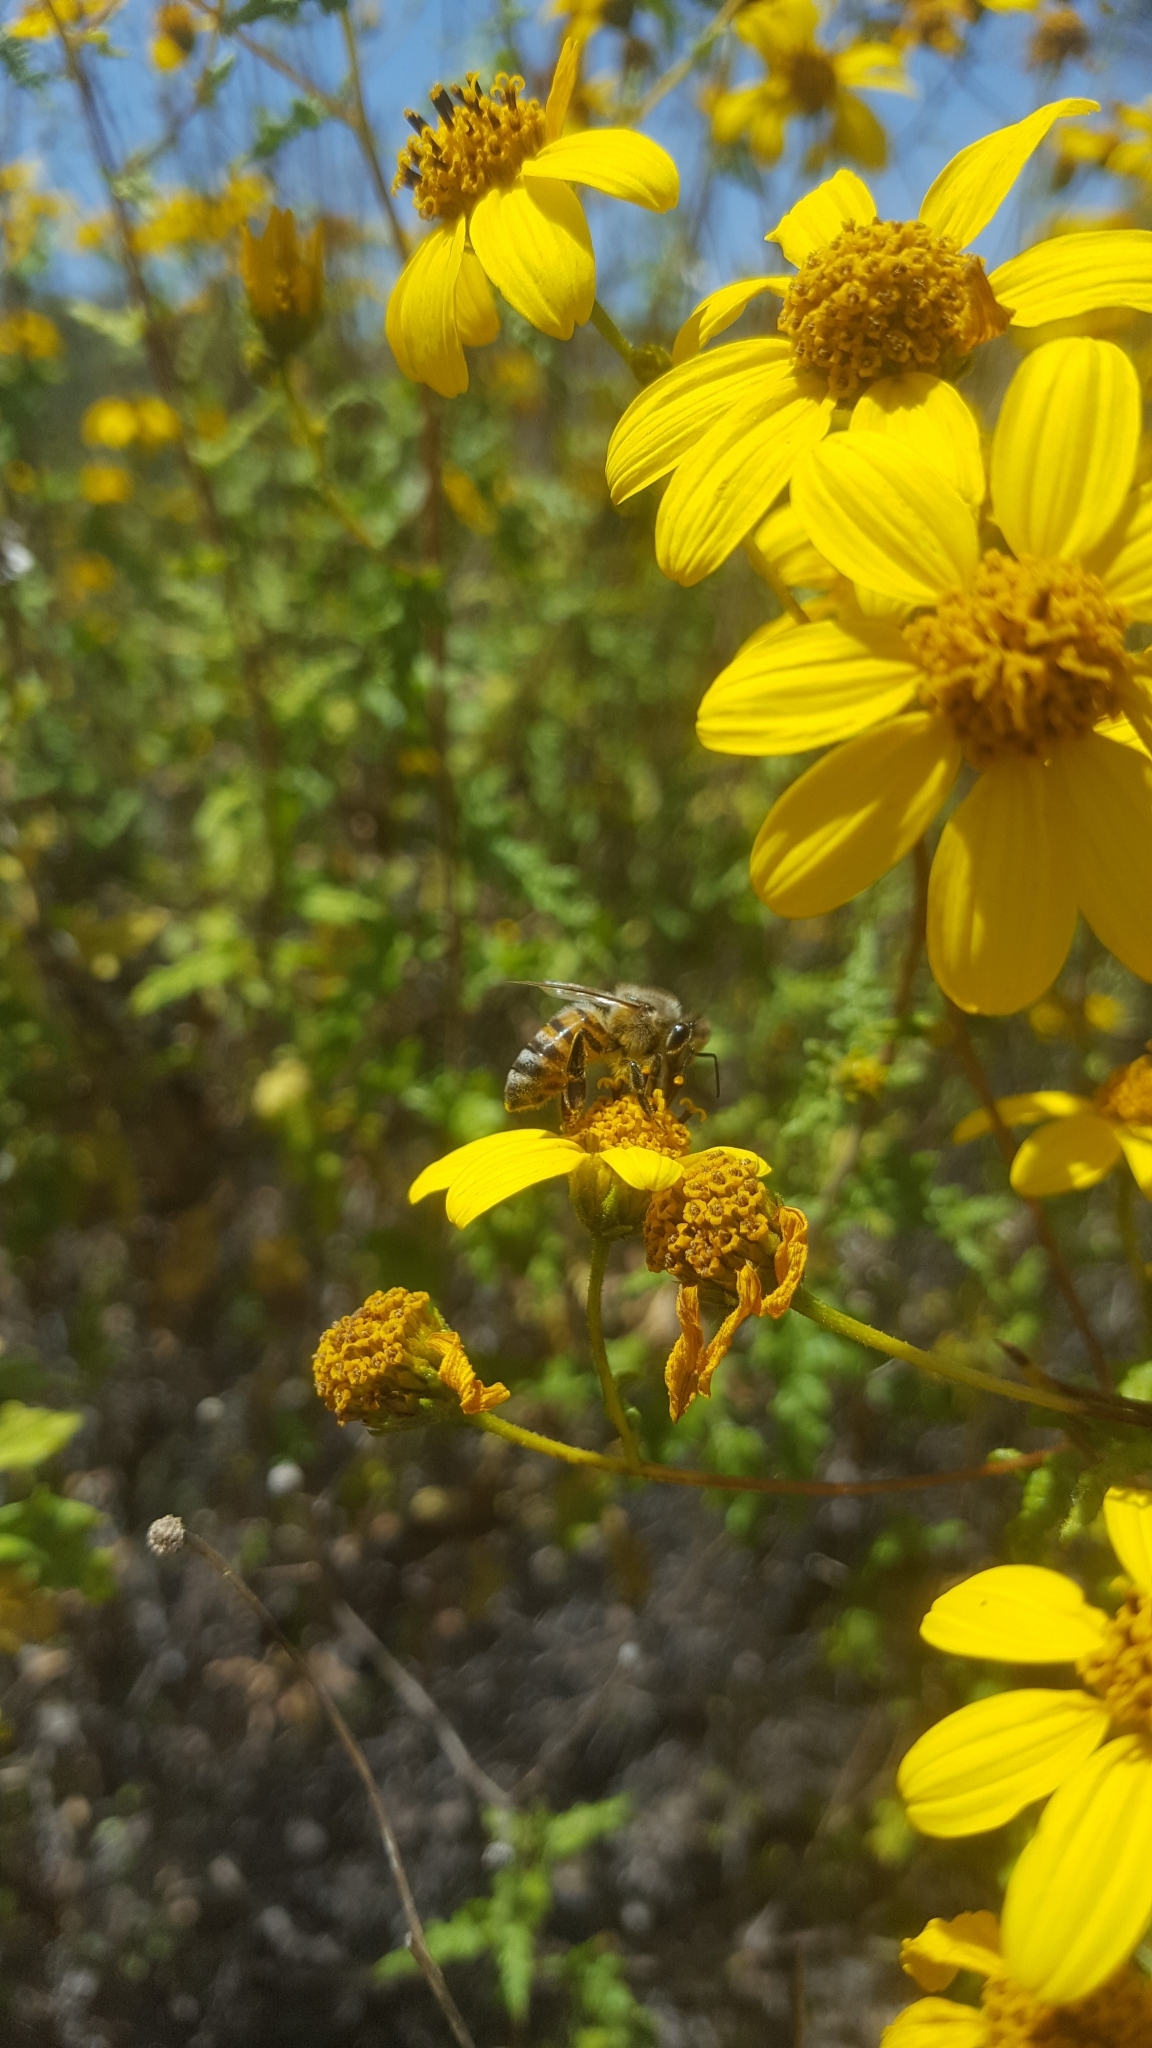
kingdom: Plantae
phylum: Tracheophyta
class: Magnoliopsida
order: Asterales
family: Asteraceae
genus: Bahiopsis
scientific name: Bahiopsis laciniata
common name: San diego county viguiera
